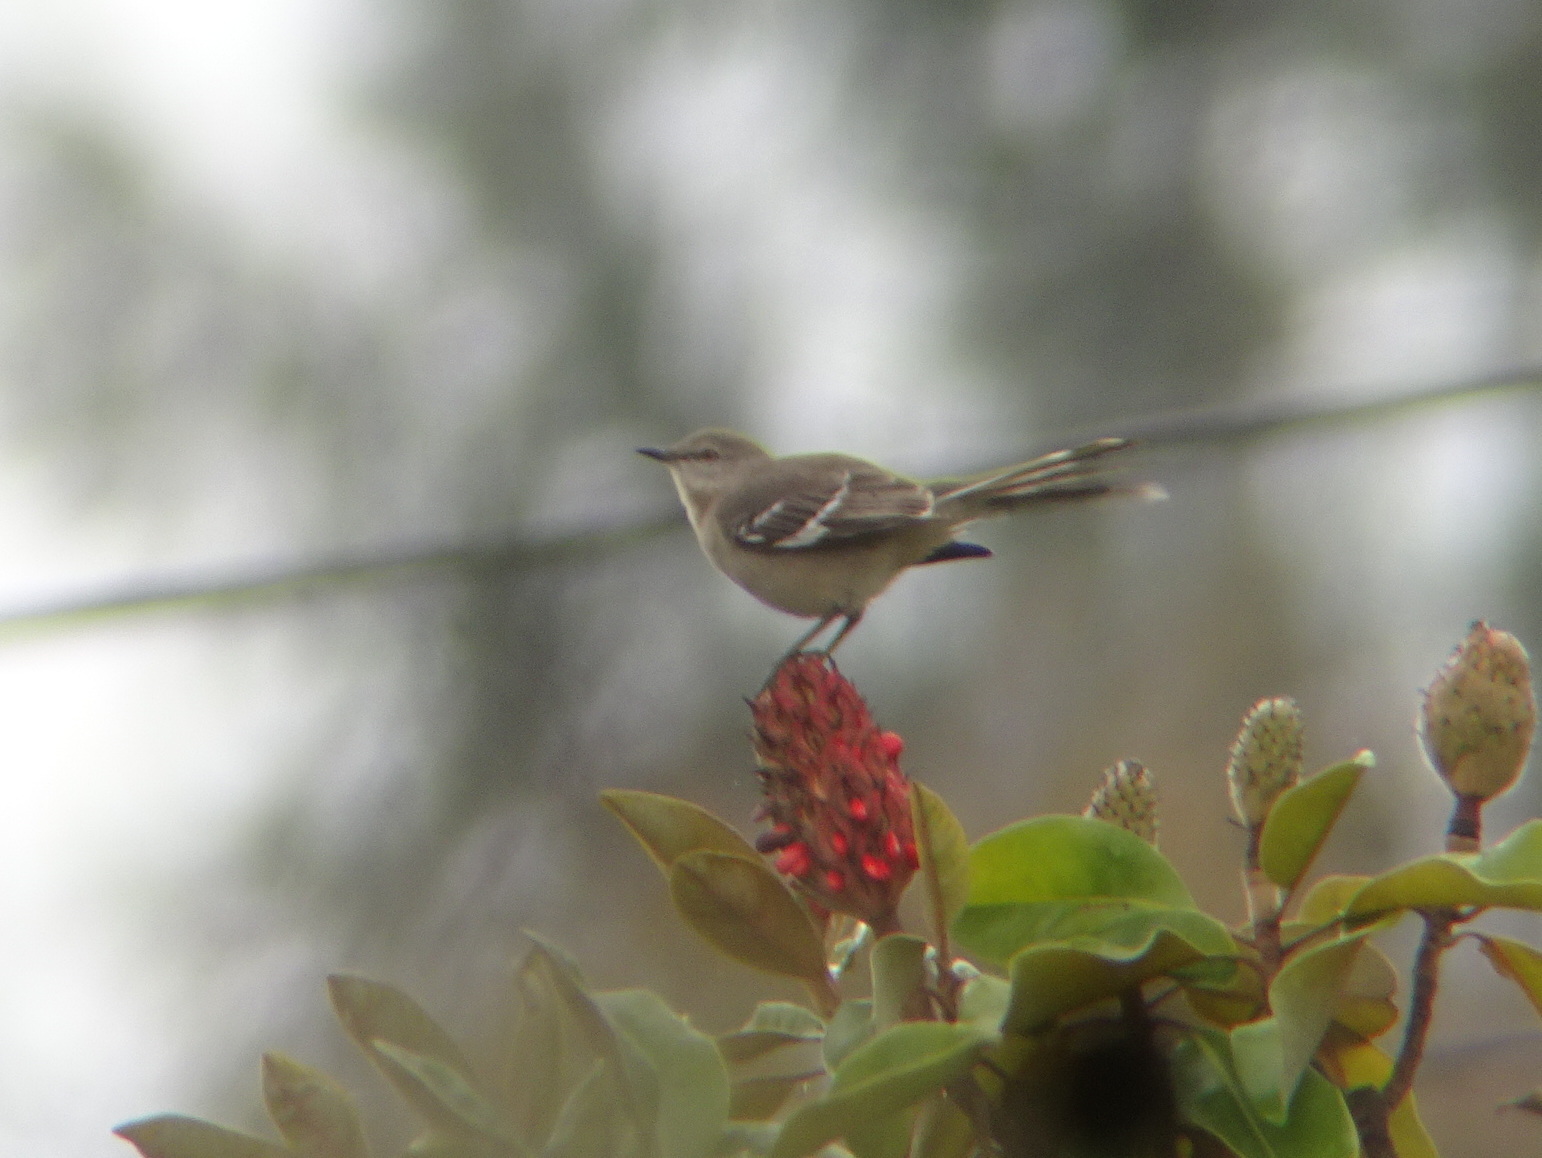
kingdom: Animalia
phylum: Chordata
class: Aves
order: Passeriformes
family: Mimidae
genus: Mimus
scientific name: Mimus polyglottos
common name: Northern mockingbird
